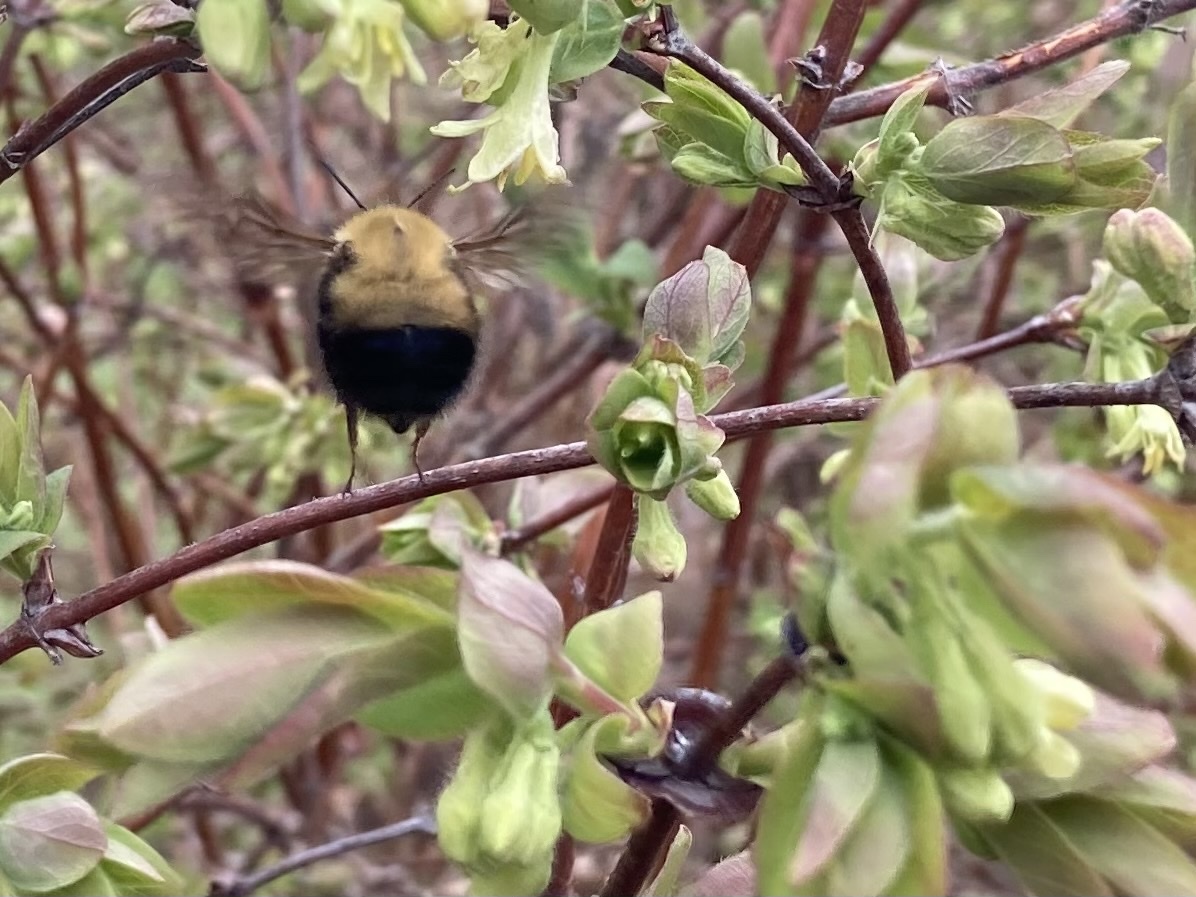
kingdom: Animalia
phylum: Arthropoda
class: Insecta
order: Hymenoptera
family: Apidae
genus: Bombus
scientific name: Bombus perplexus
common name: Confusing bumble bee
